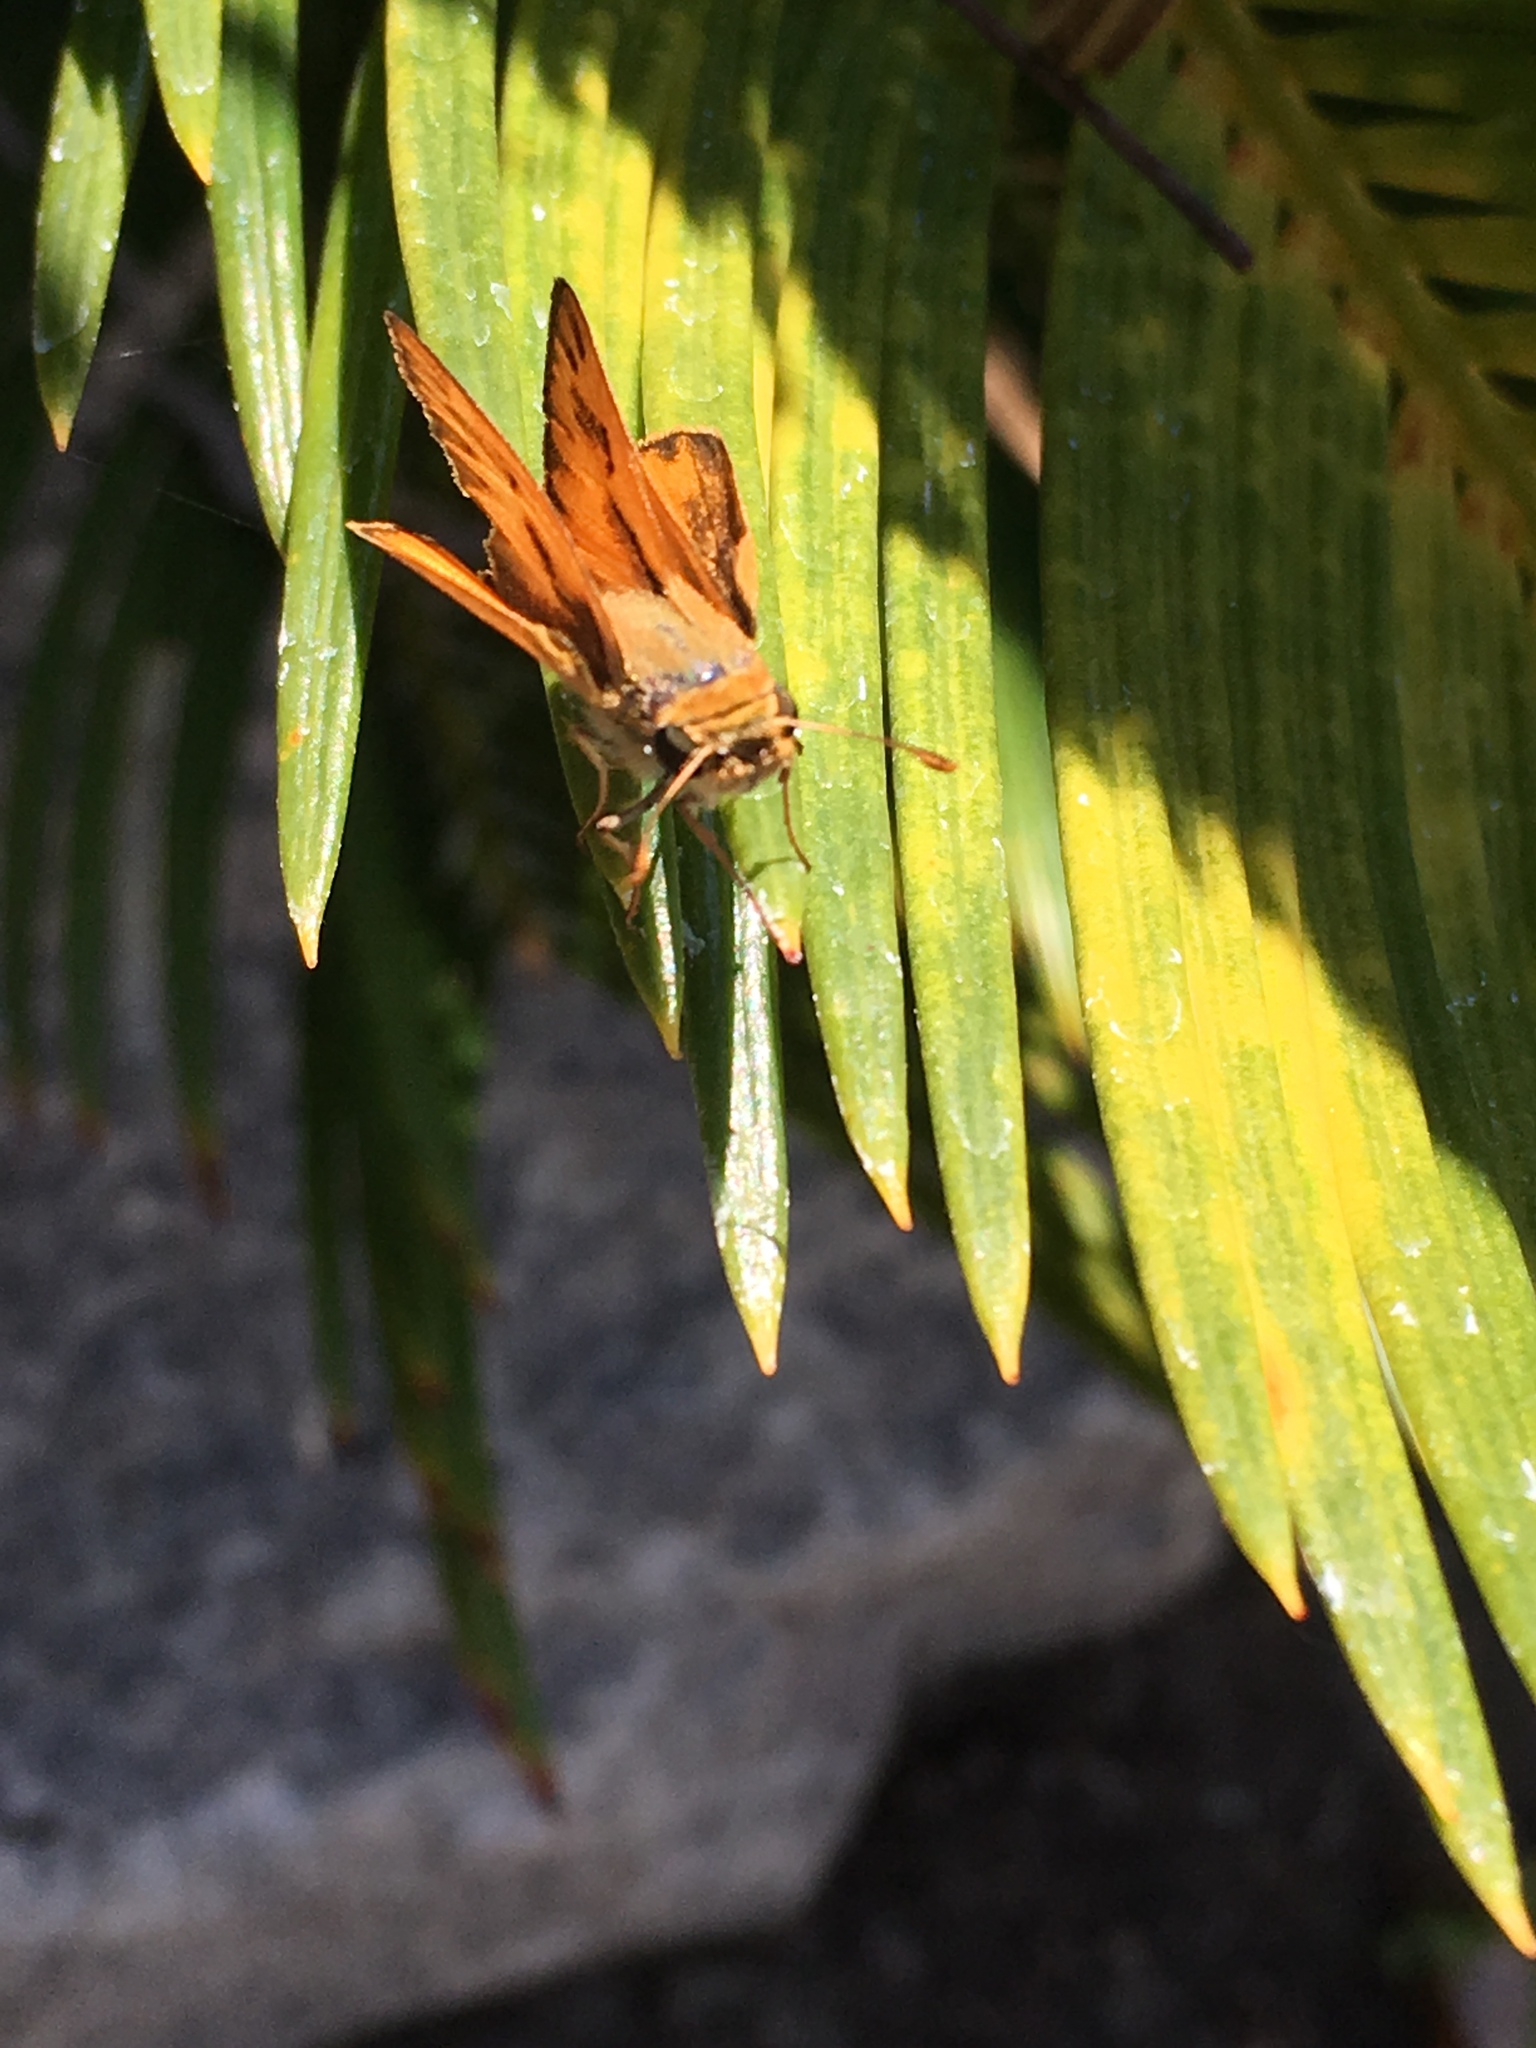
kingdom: Animalia
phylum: Arthropoda
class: Insecta
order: Lepidoptera
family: Hesperiidae
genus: Ochlodes
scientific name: Ochlodes sylvanoides
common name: Woodland skipper
